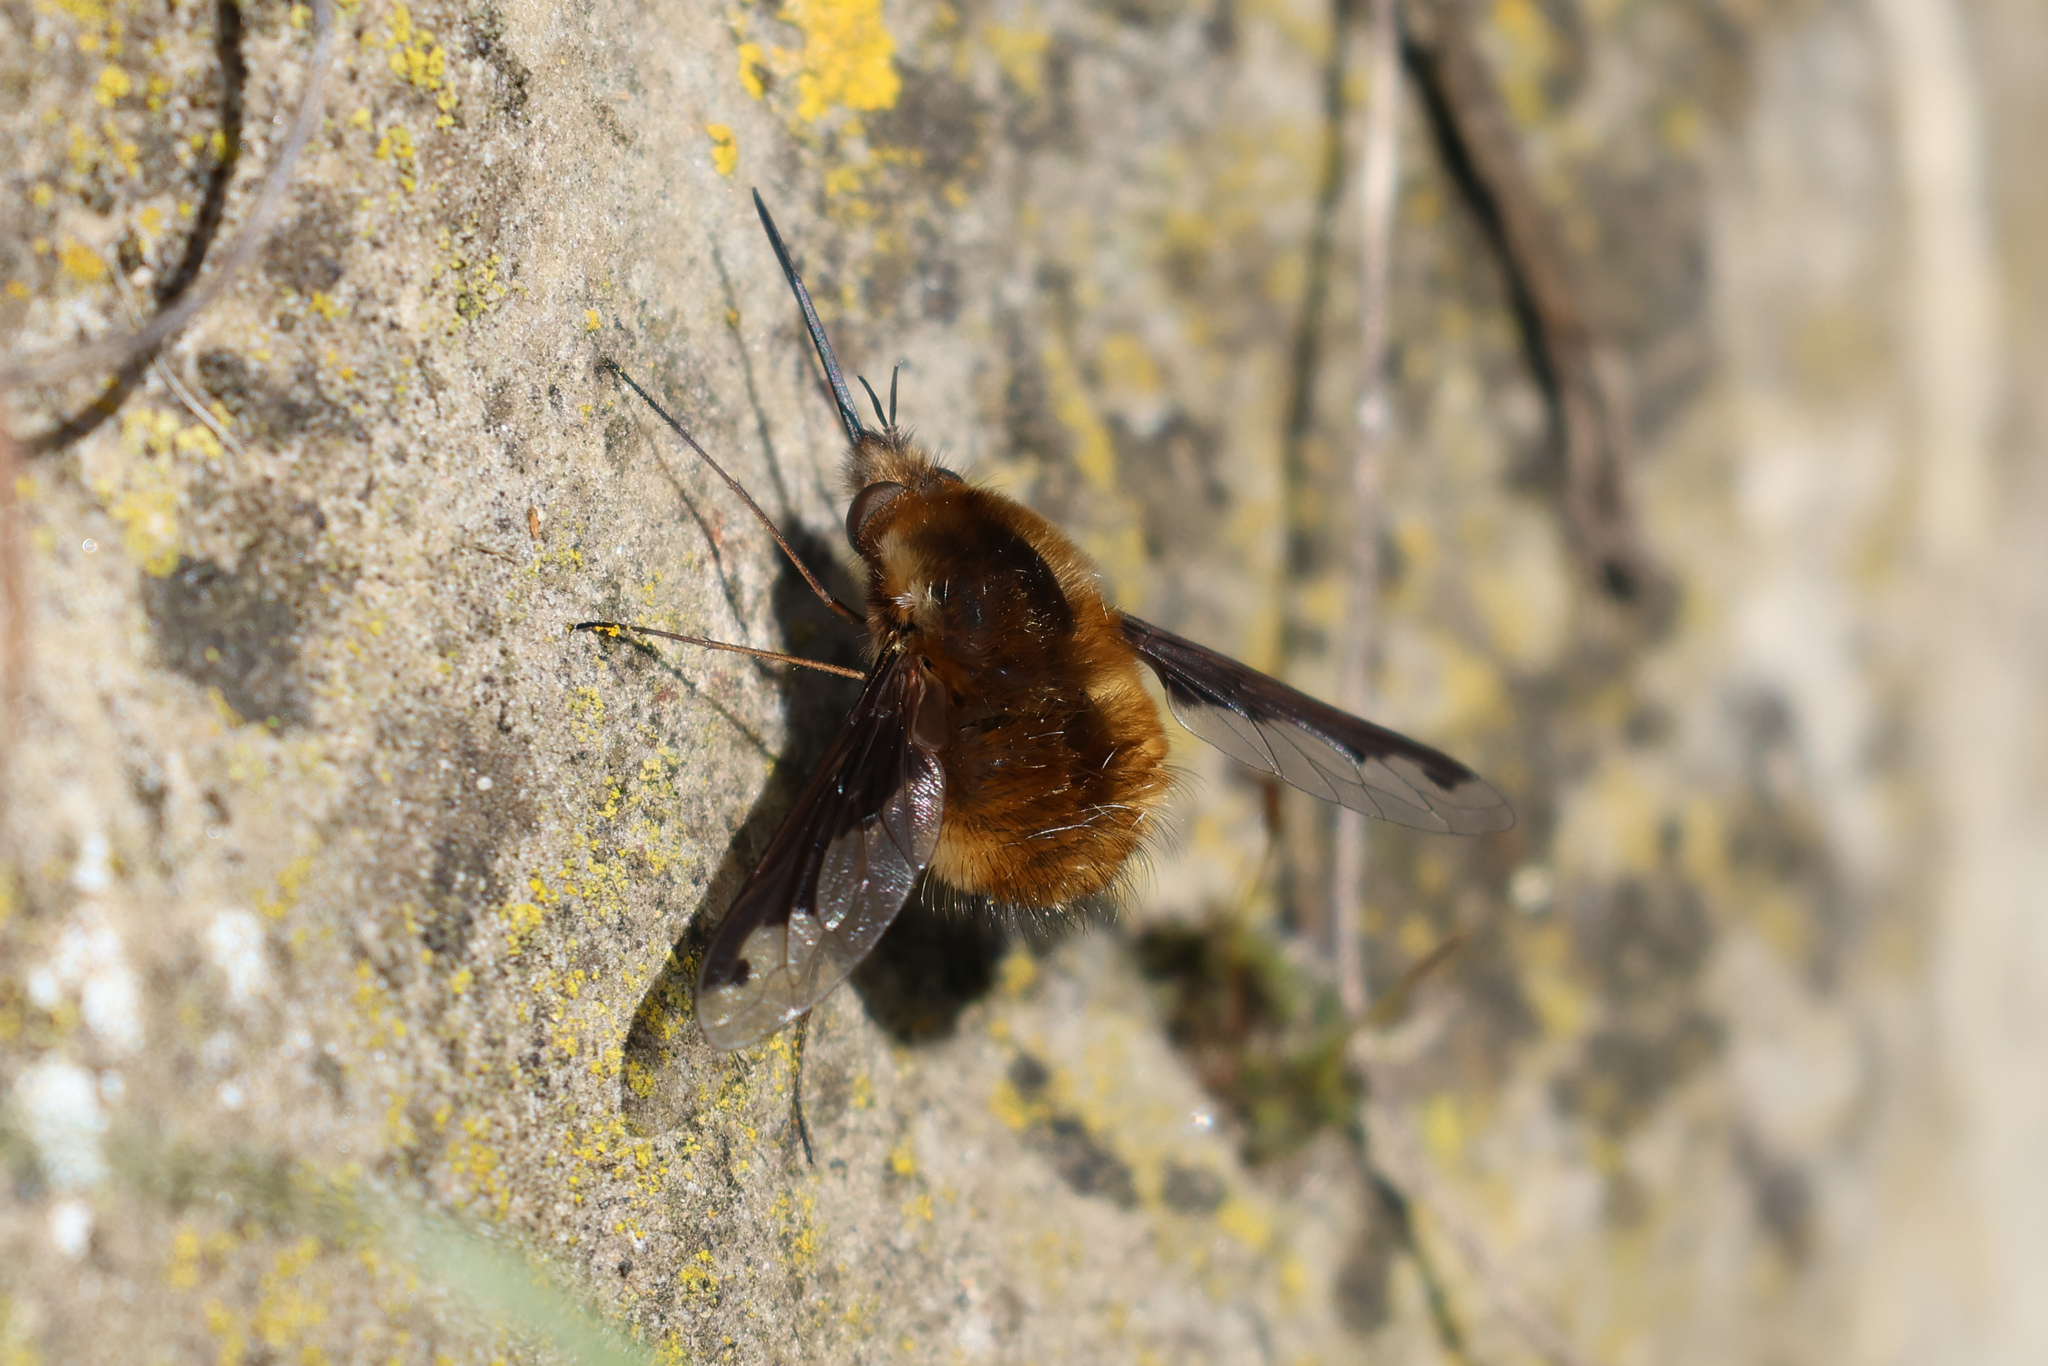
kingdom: Animalia
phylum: Arthropoda
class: Insecta
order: Diptera
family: Bombyliidae
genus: Bombylius
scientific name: Bombylius major
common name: Bee fly
